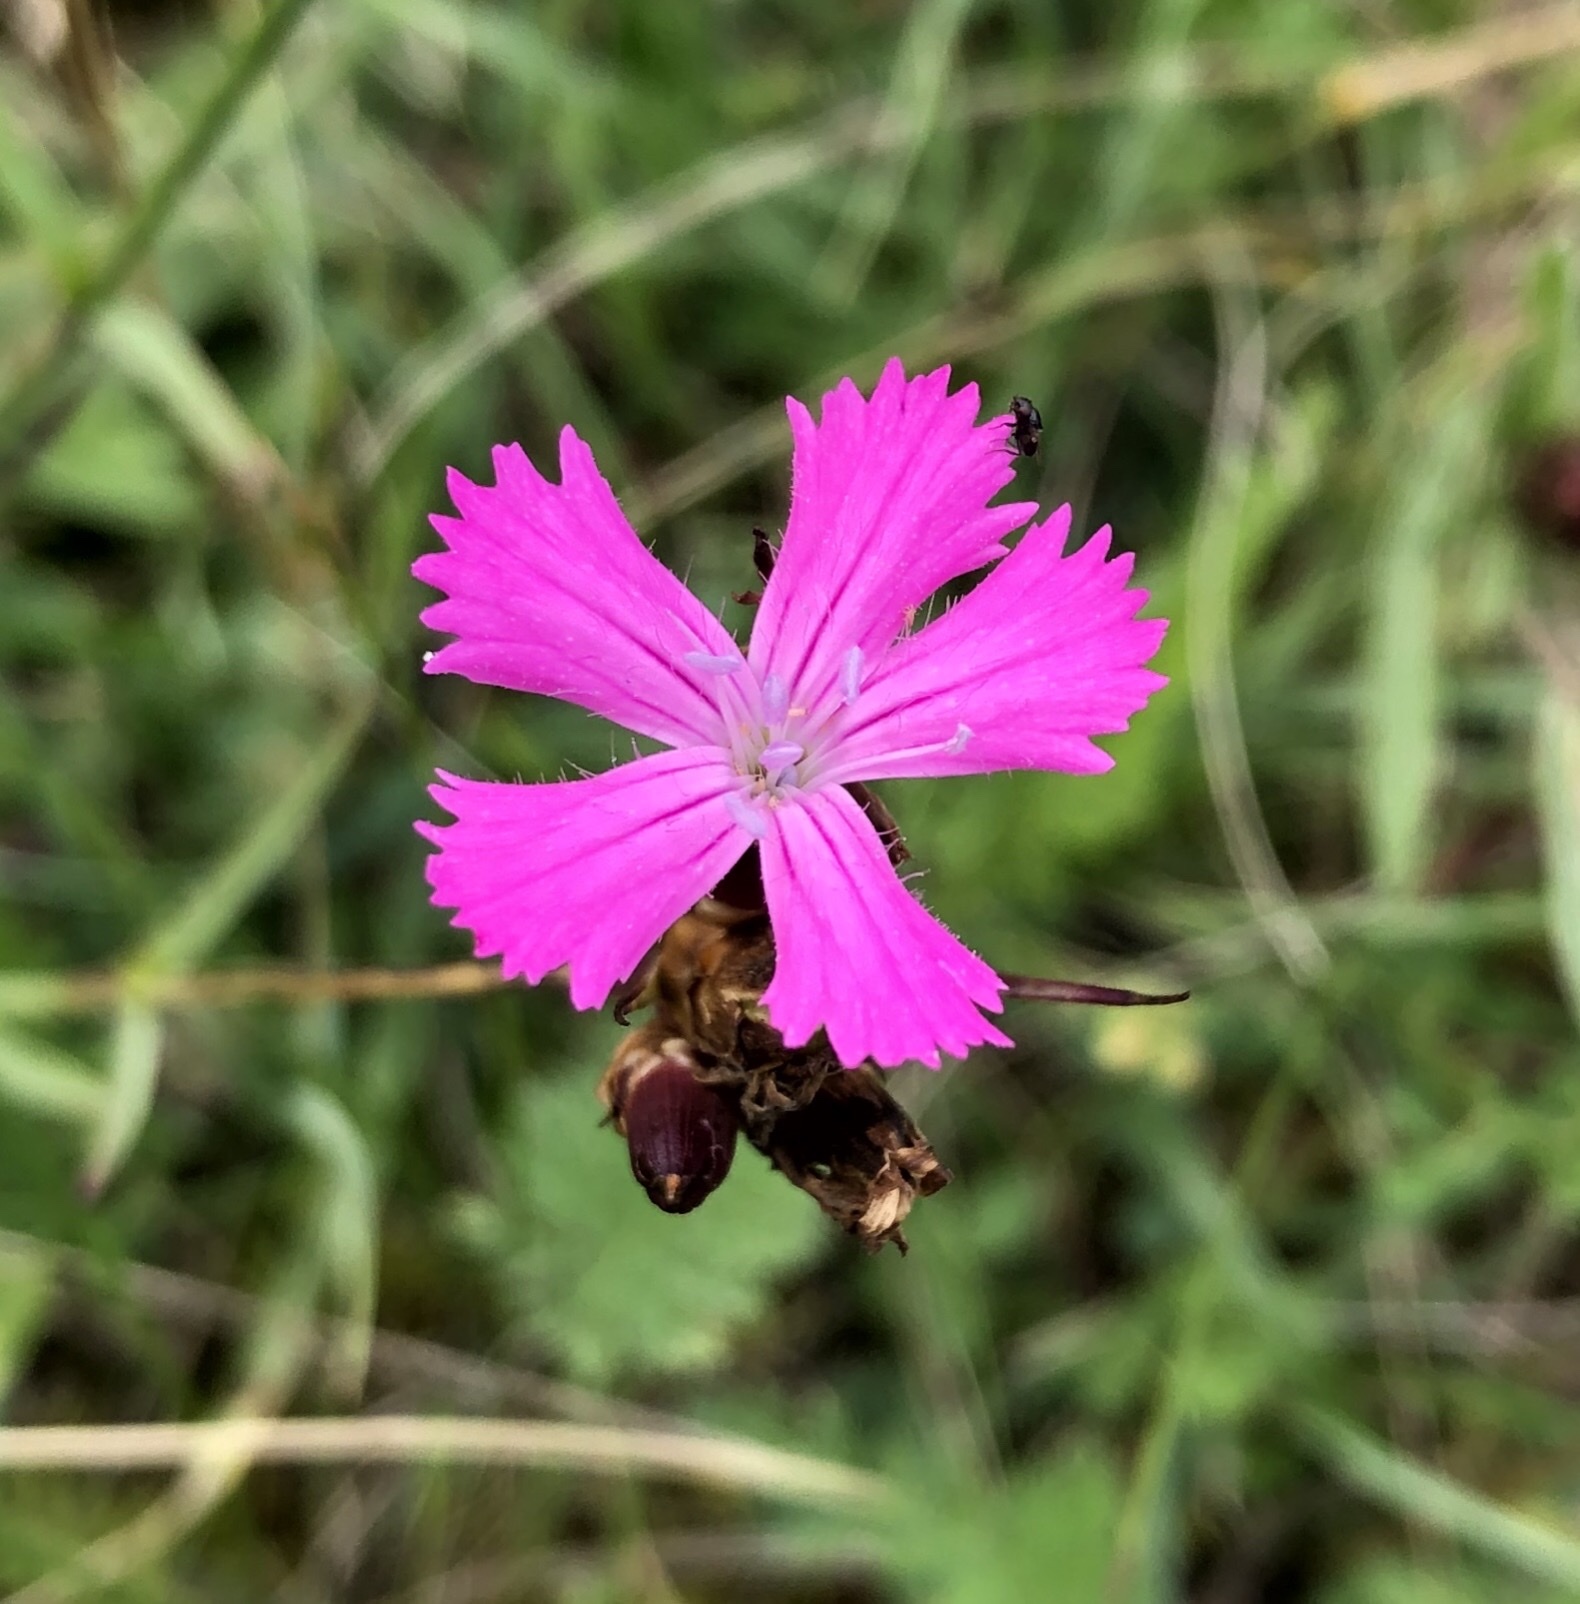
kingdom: Plantae
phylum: Tracheophyta
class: Magnoliopsida
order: Caryophyllales
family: Caryophyllaceae
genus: Dianthus
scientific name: Dianthus carthusianorum
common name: Carthusian pink
